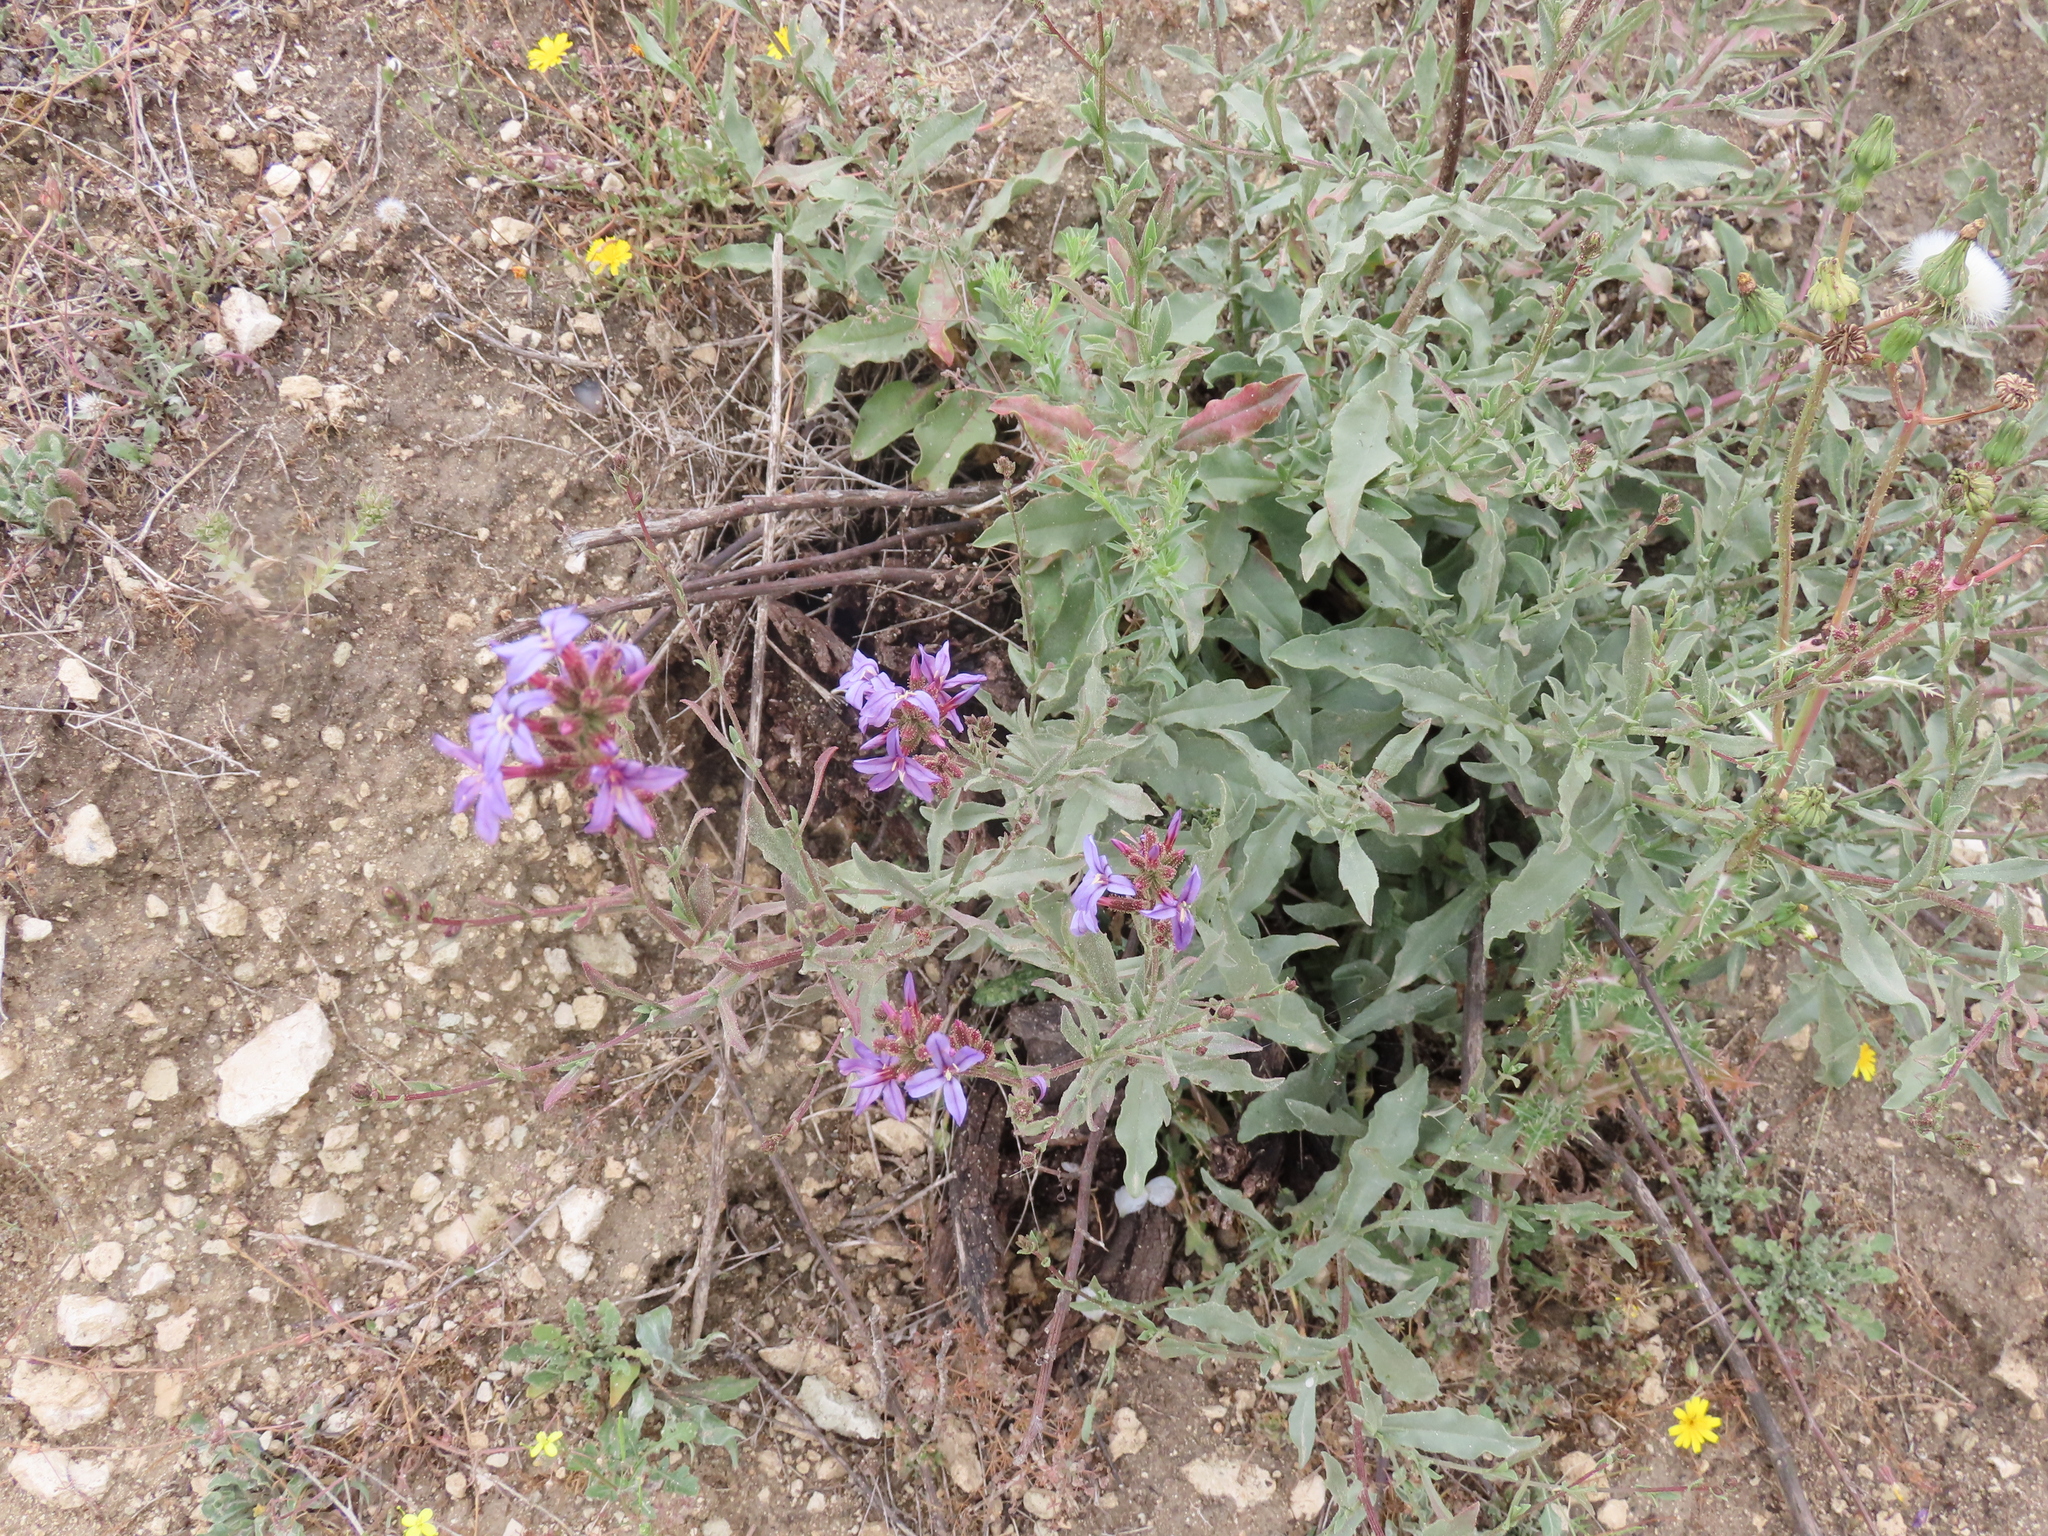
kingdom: Plantae
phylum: Tracheophyta
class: Magnoliopsida
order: Caryophyllales
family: Plumbaginaceae
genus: Plumbago
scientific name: Plumbago europaea
